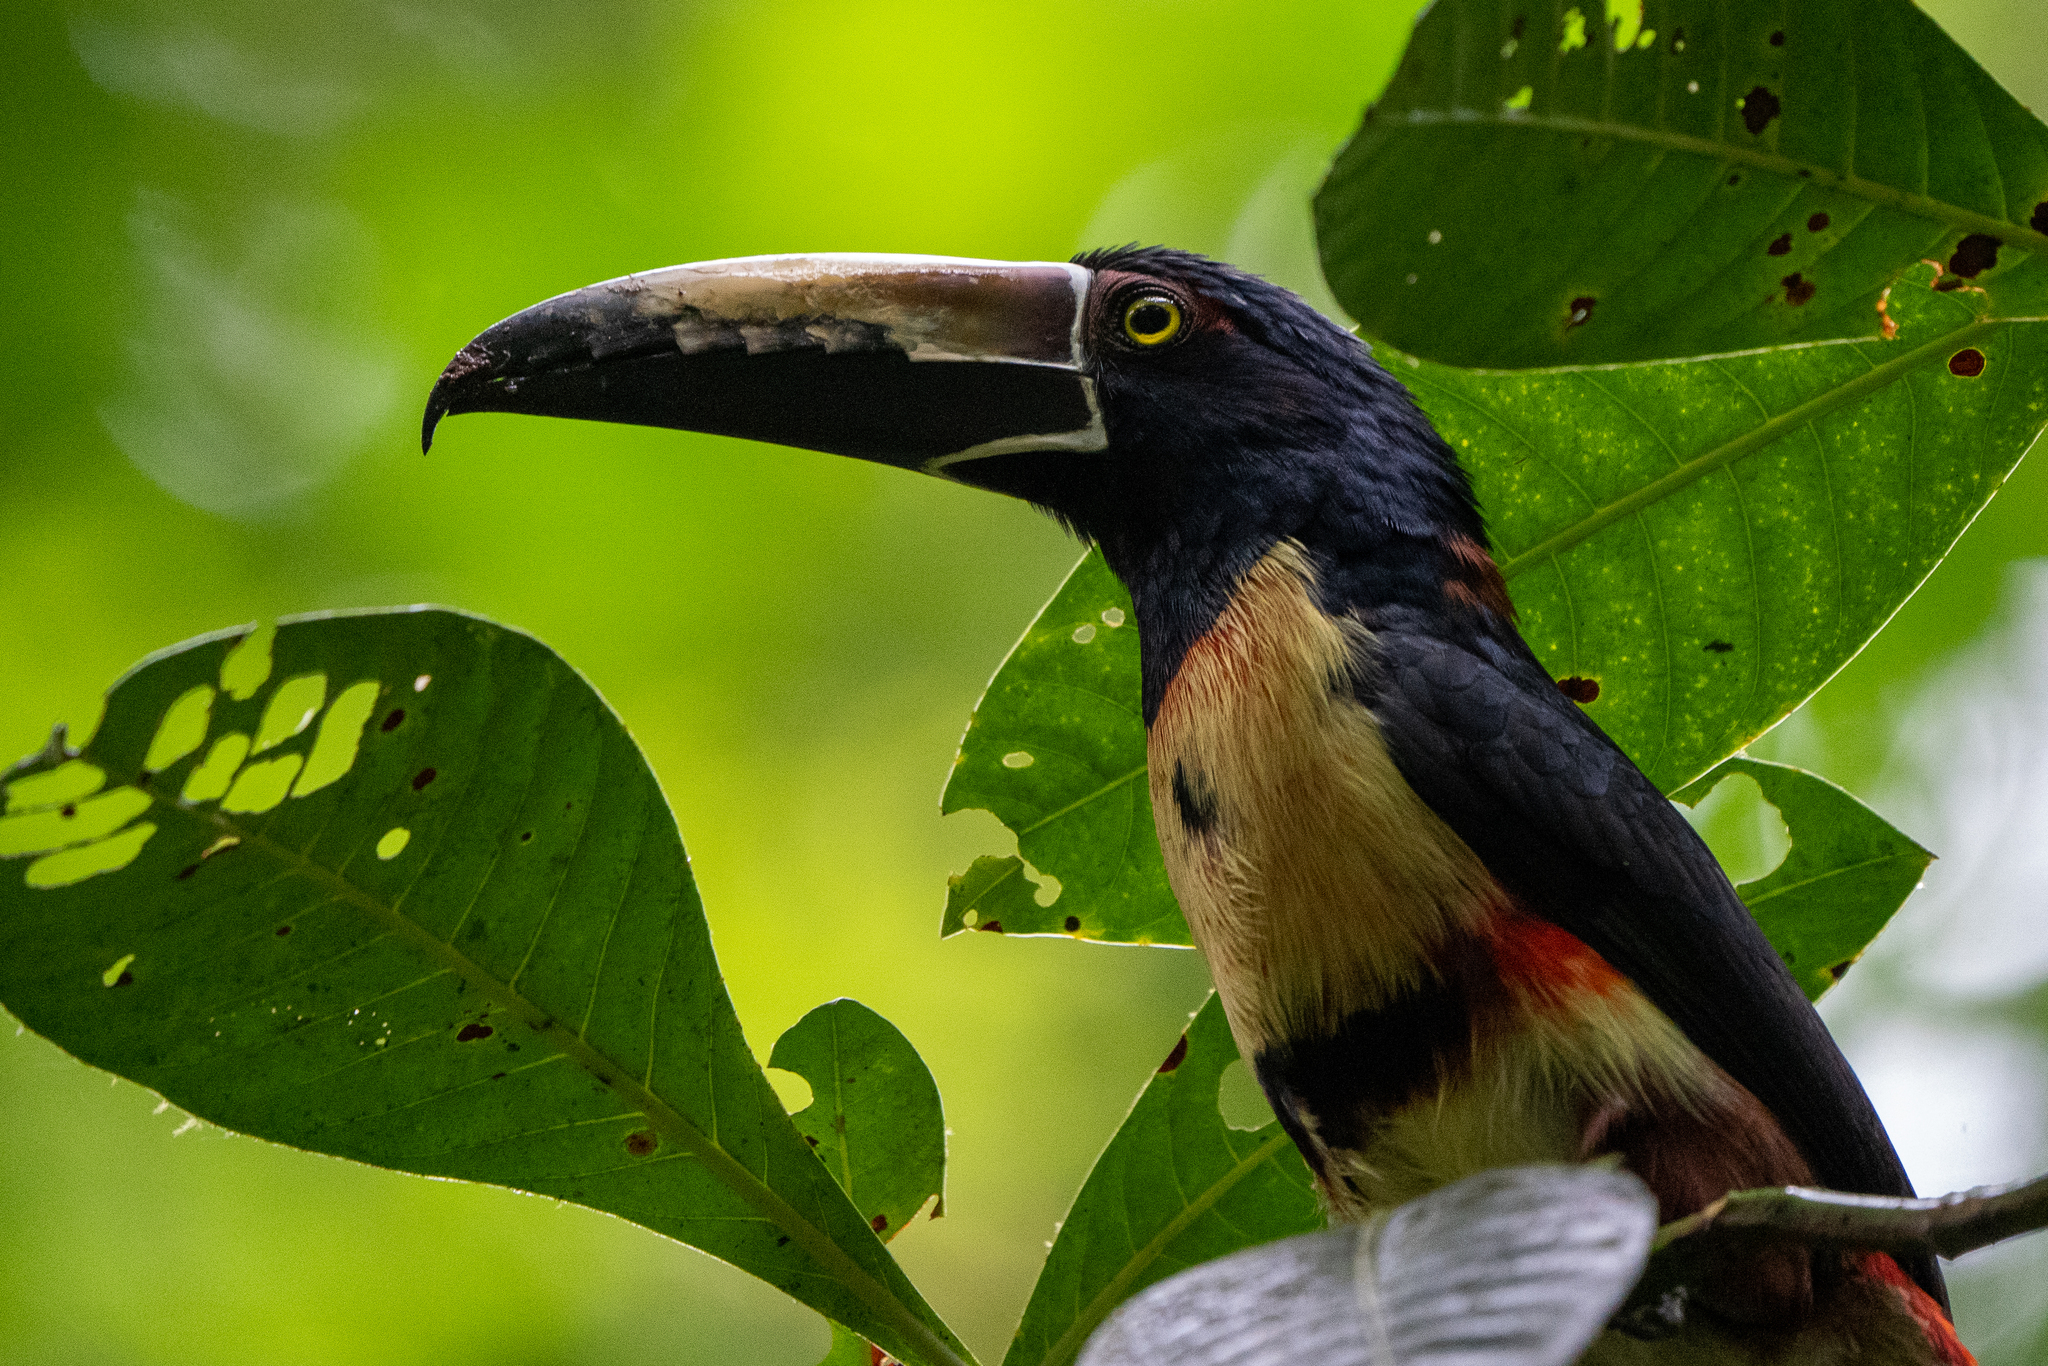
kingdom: Animalia
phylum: Chordata
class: Aves
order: Piciformes
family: Ramphastidae
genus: Pteroglossus
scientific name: Pteroglossus torquatus
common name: Collared aracari
